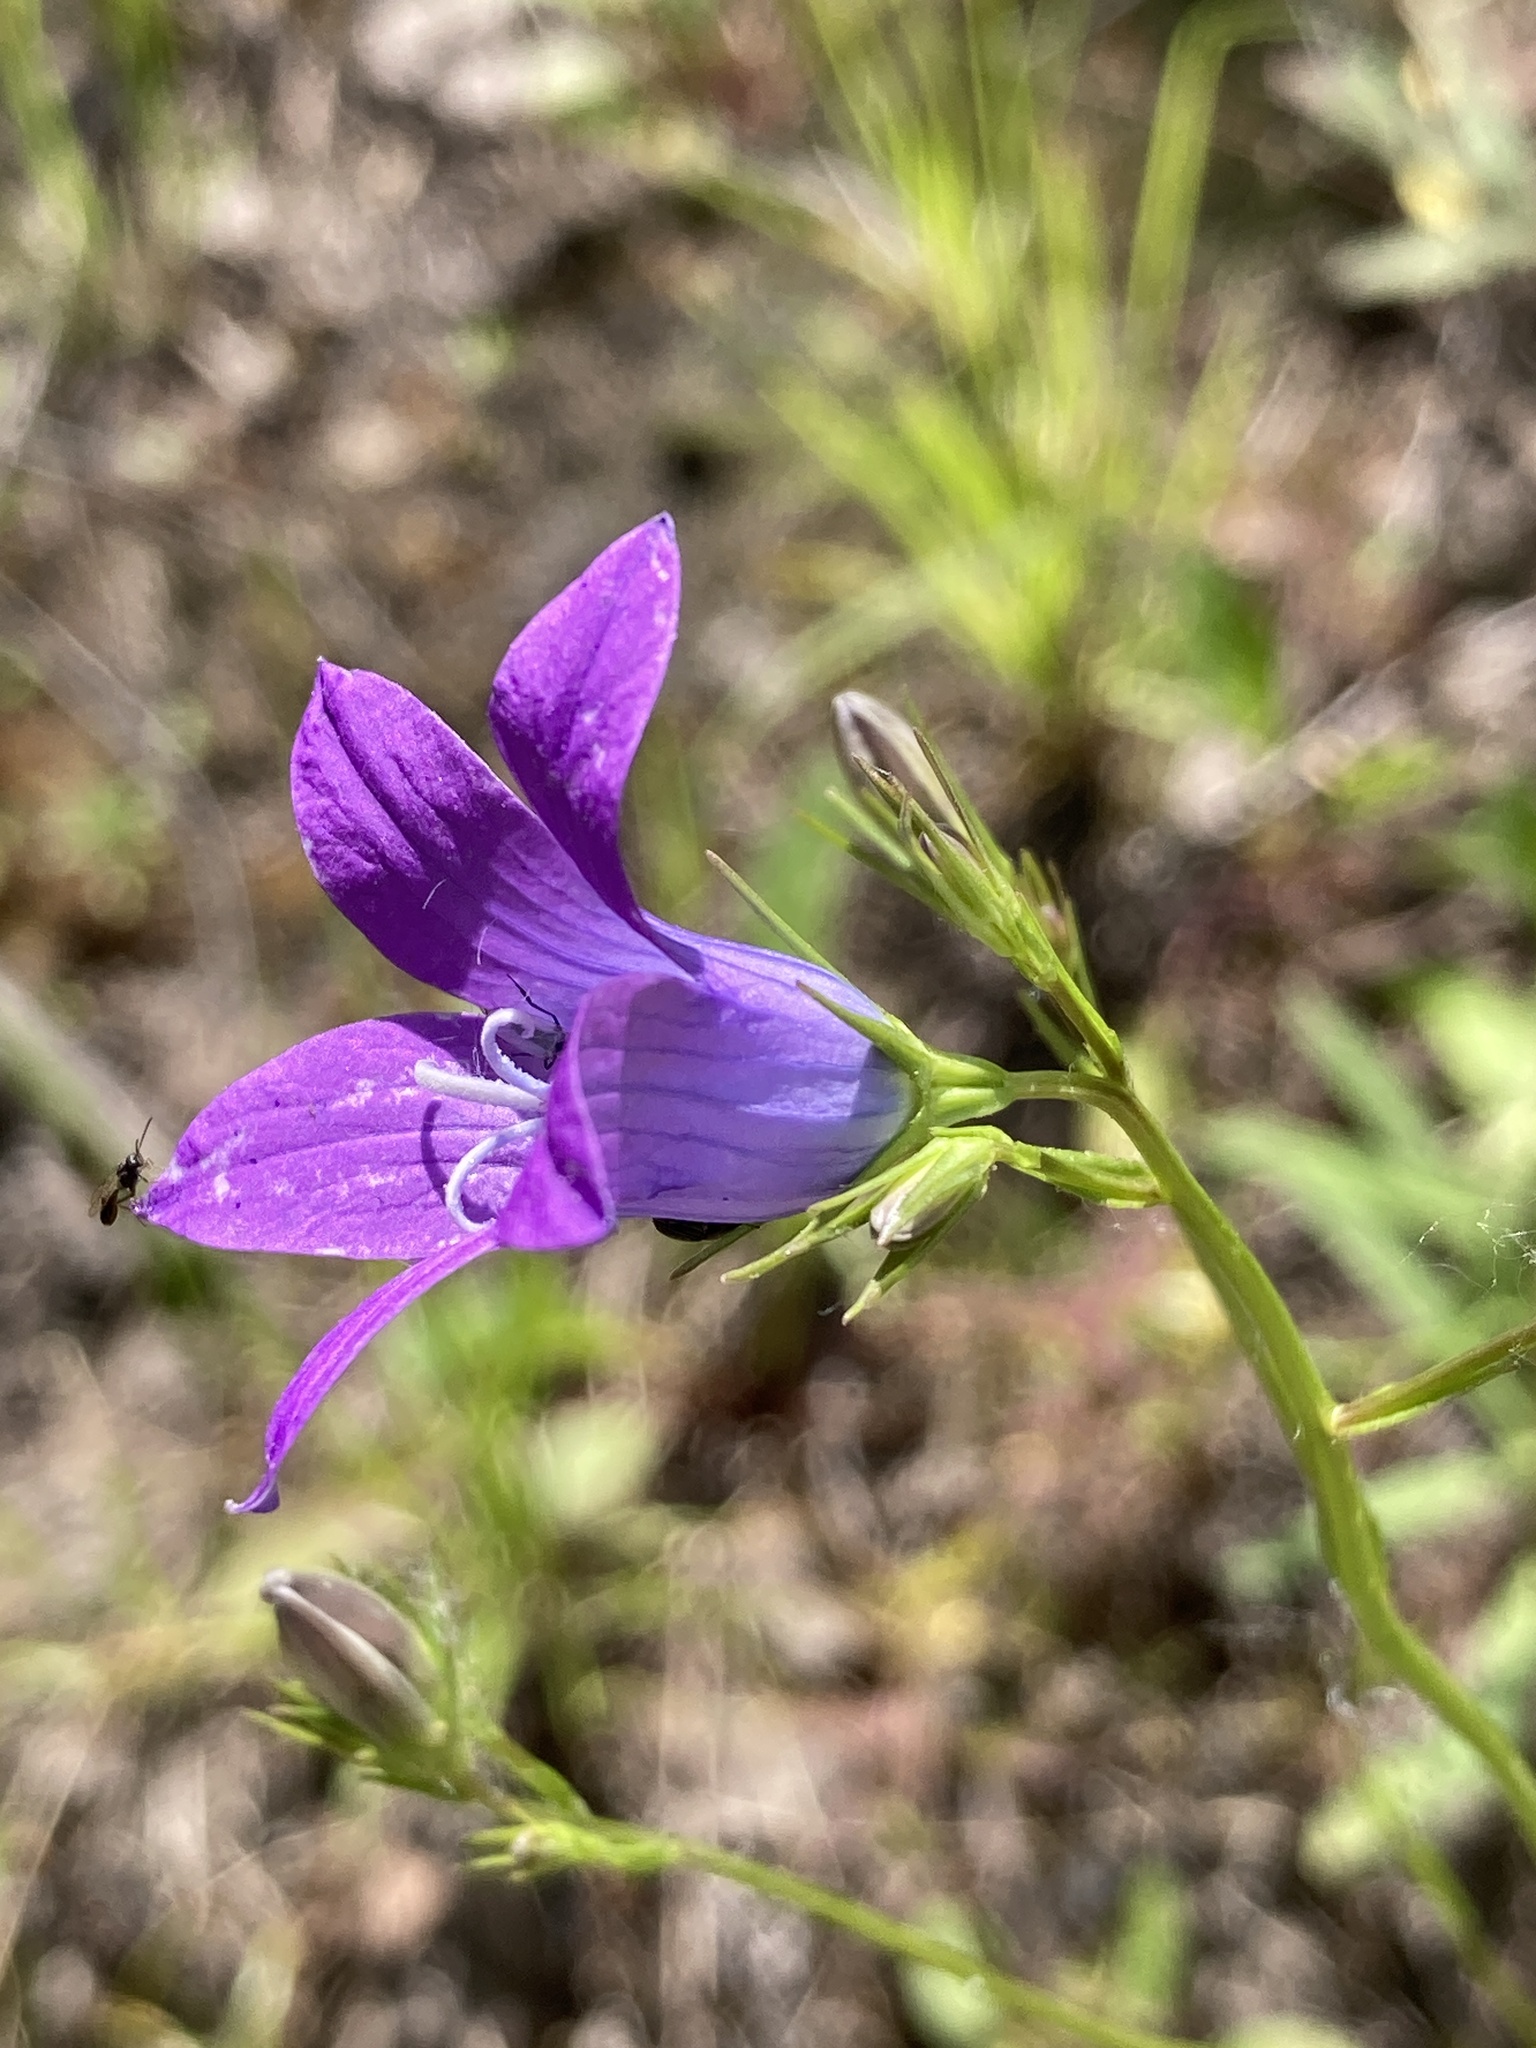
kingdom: Plantae
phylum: Tracheophyta
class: Magnoliopsida
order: Asterales
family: Campanulaceae
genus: Campanula
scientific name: Campanula patula
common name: Spreading bellflower
